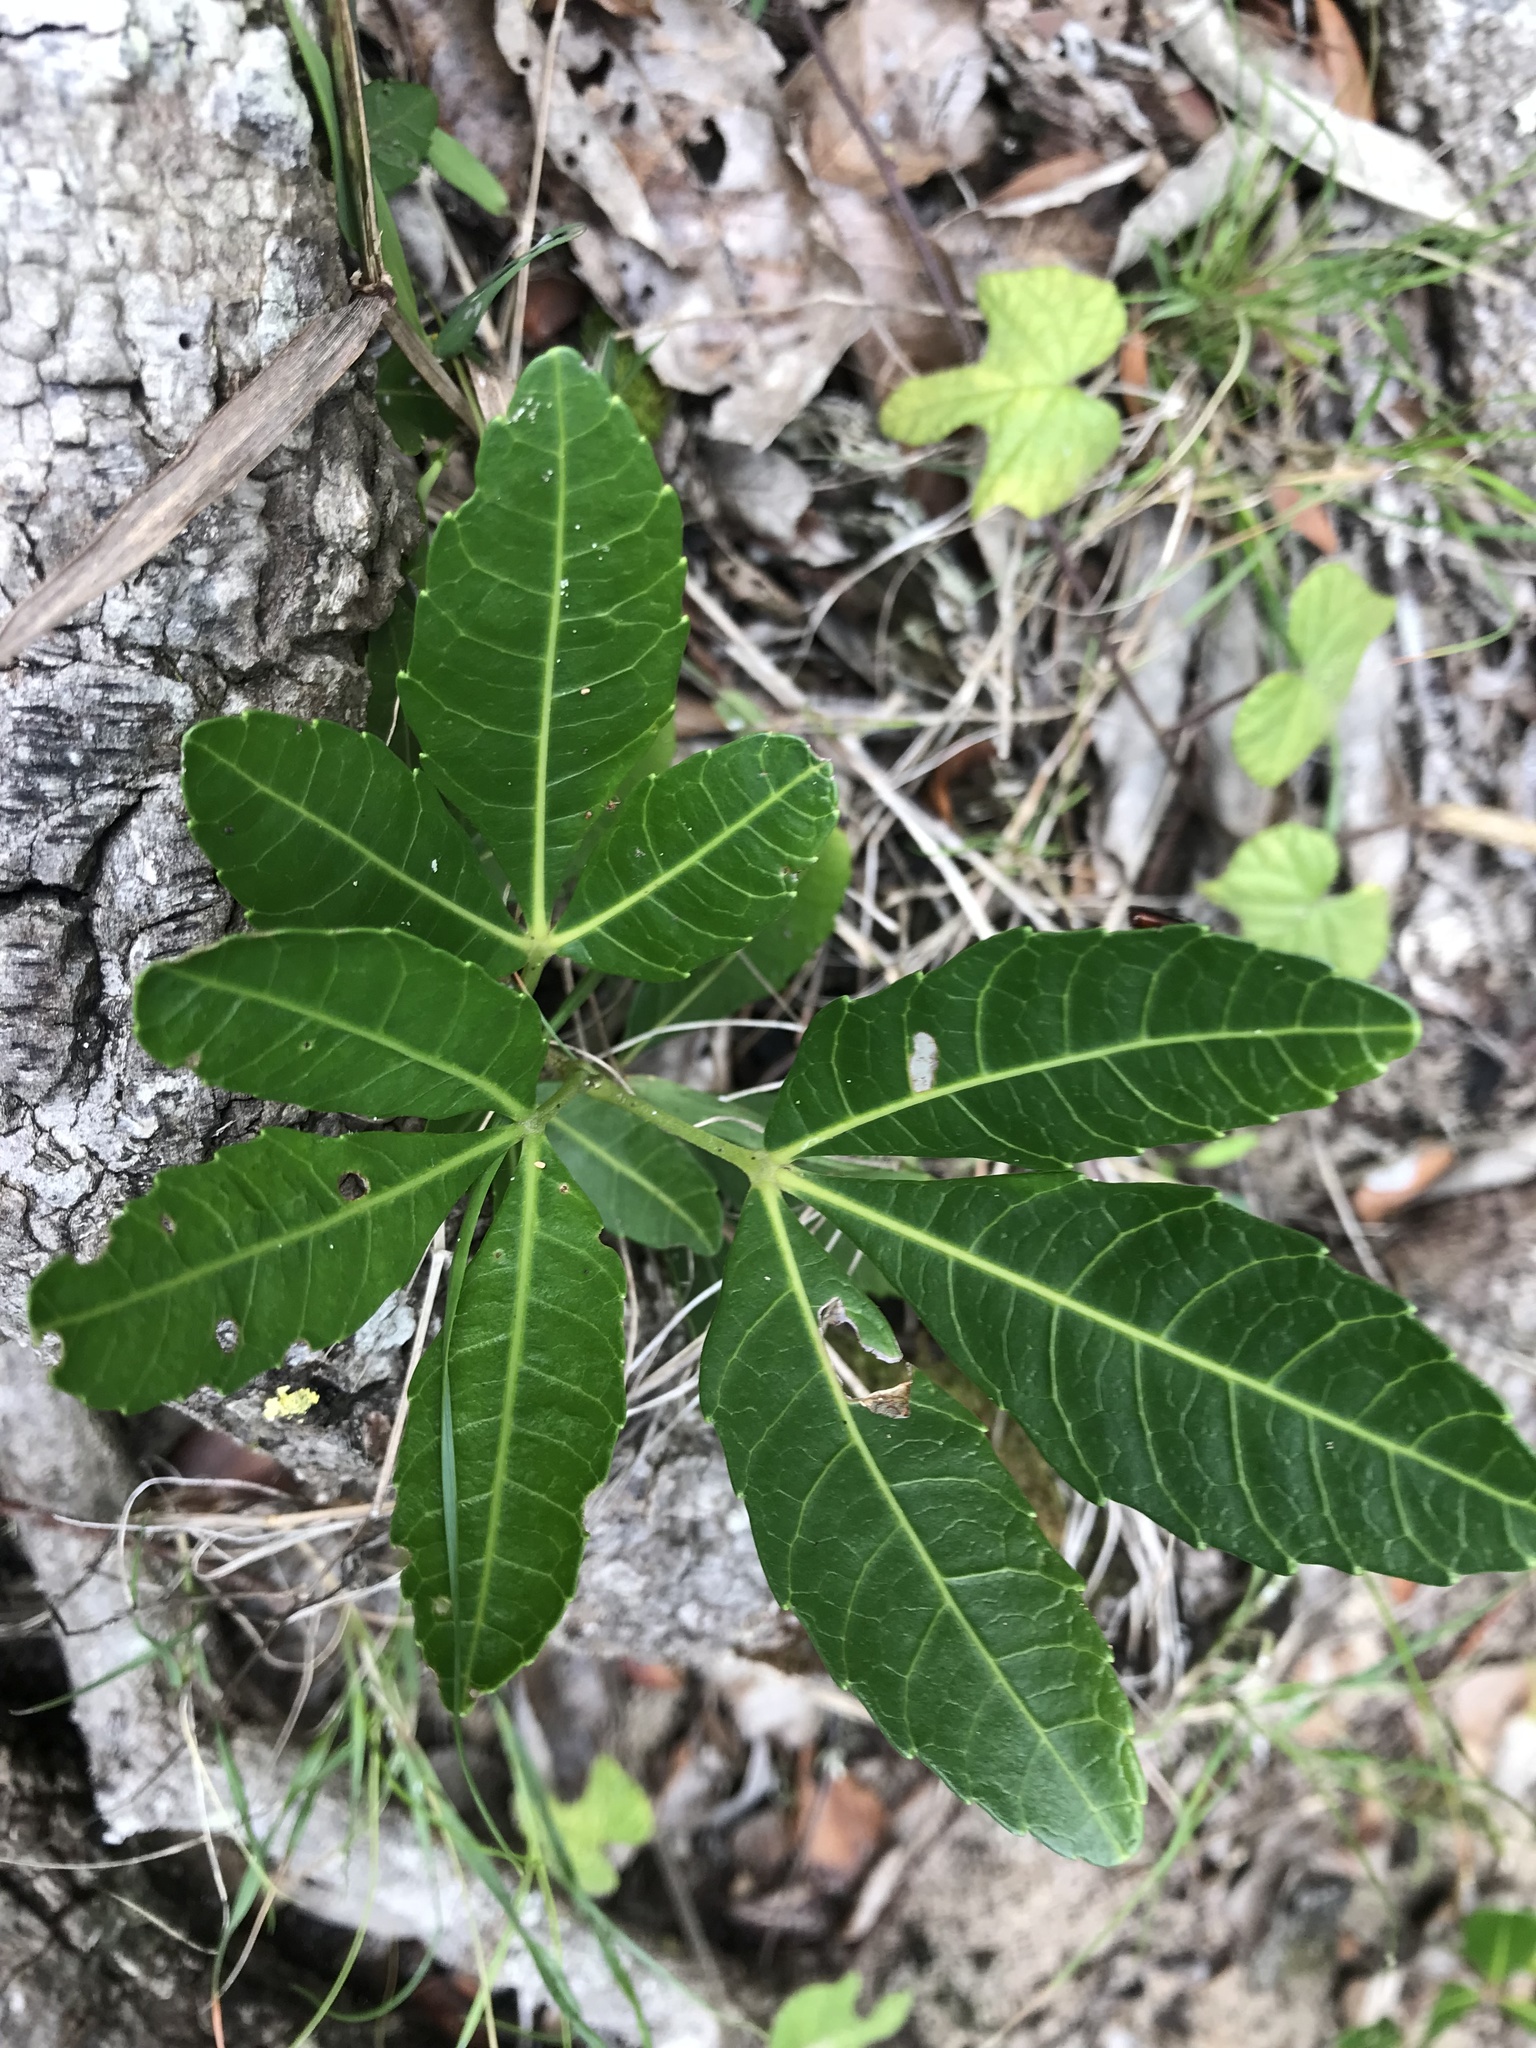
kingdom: Plantae
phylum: Tracheophyta
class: Magnoliopsida
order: Sapindales
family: Sapindaceae
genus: Allophylus
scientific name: Allophylus natalensis
